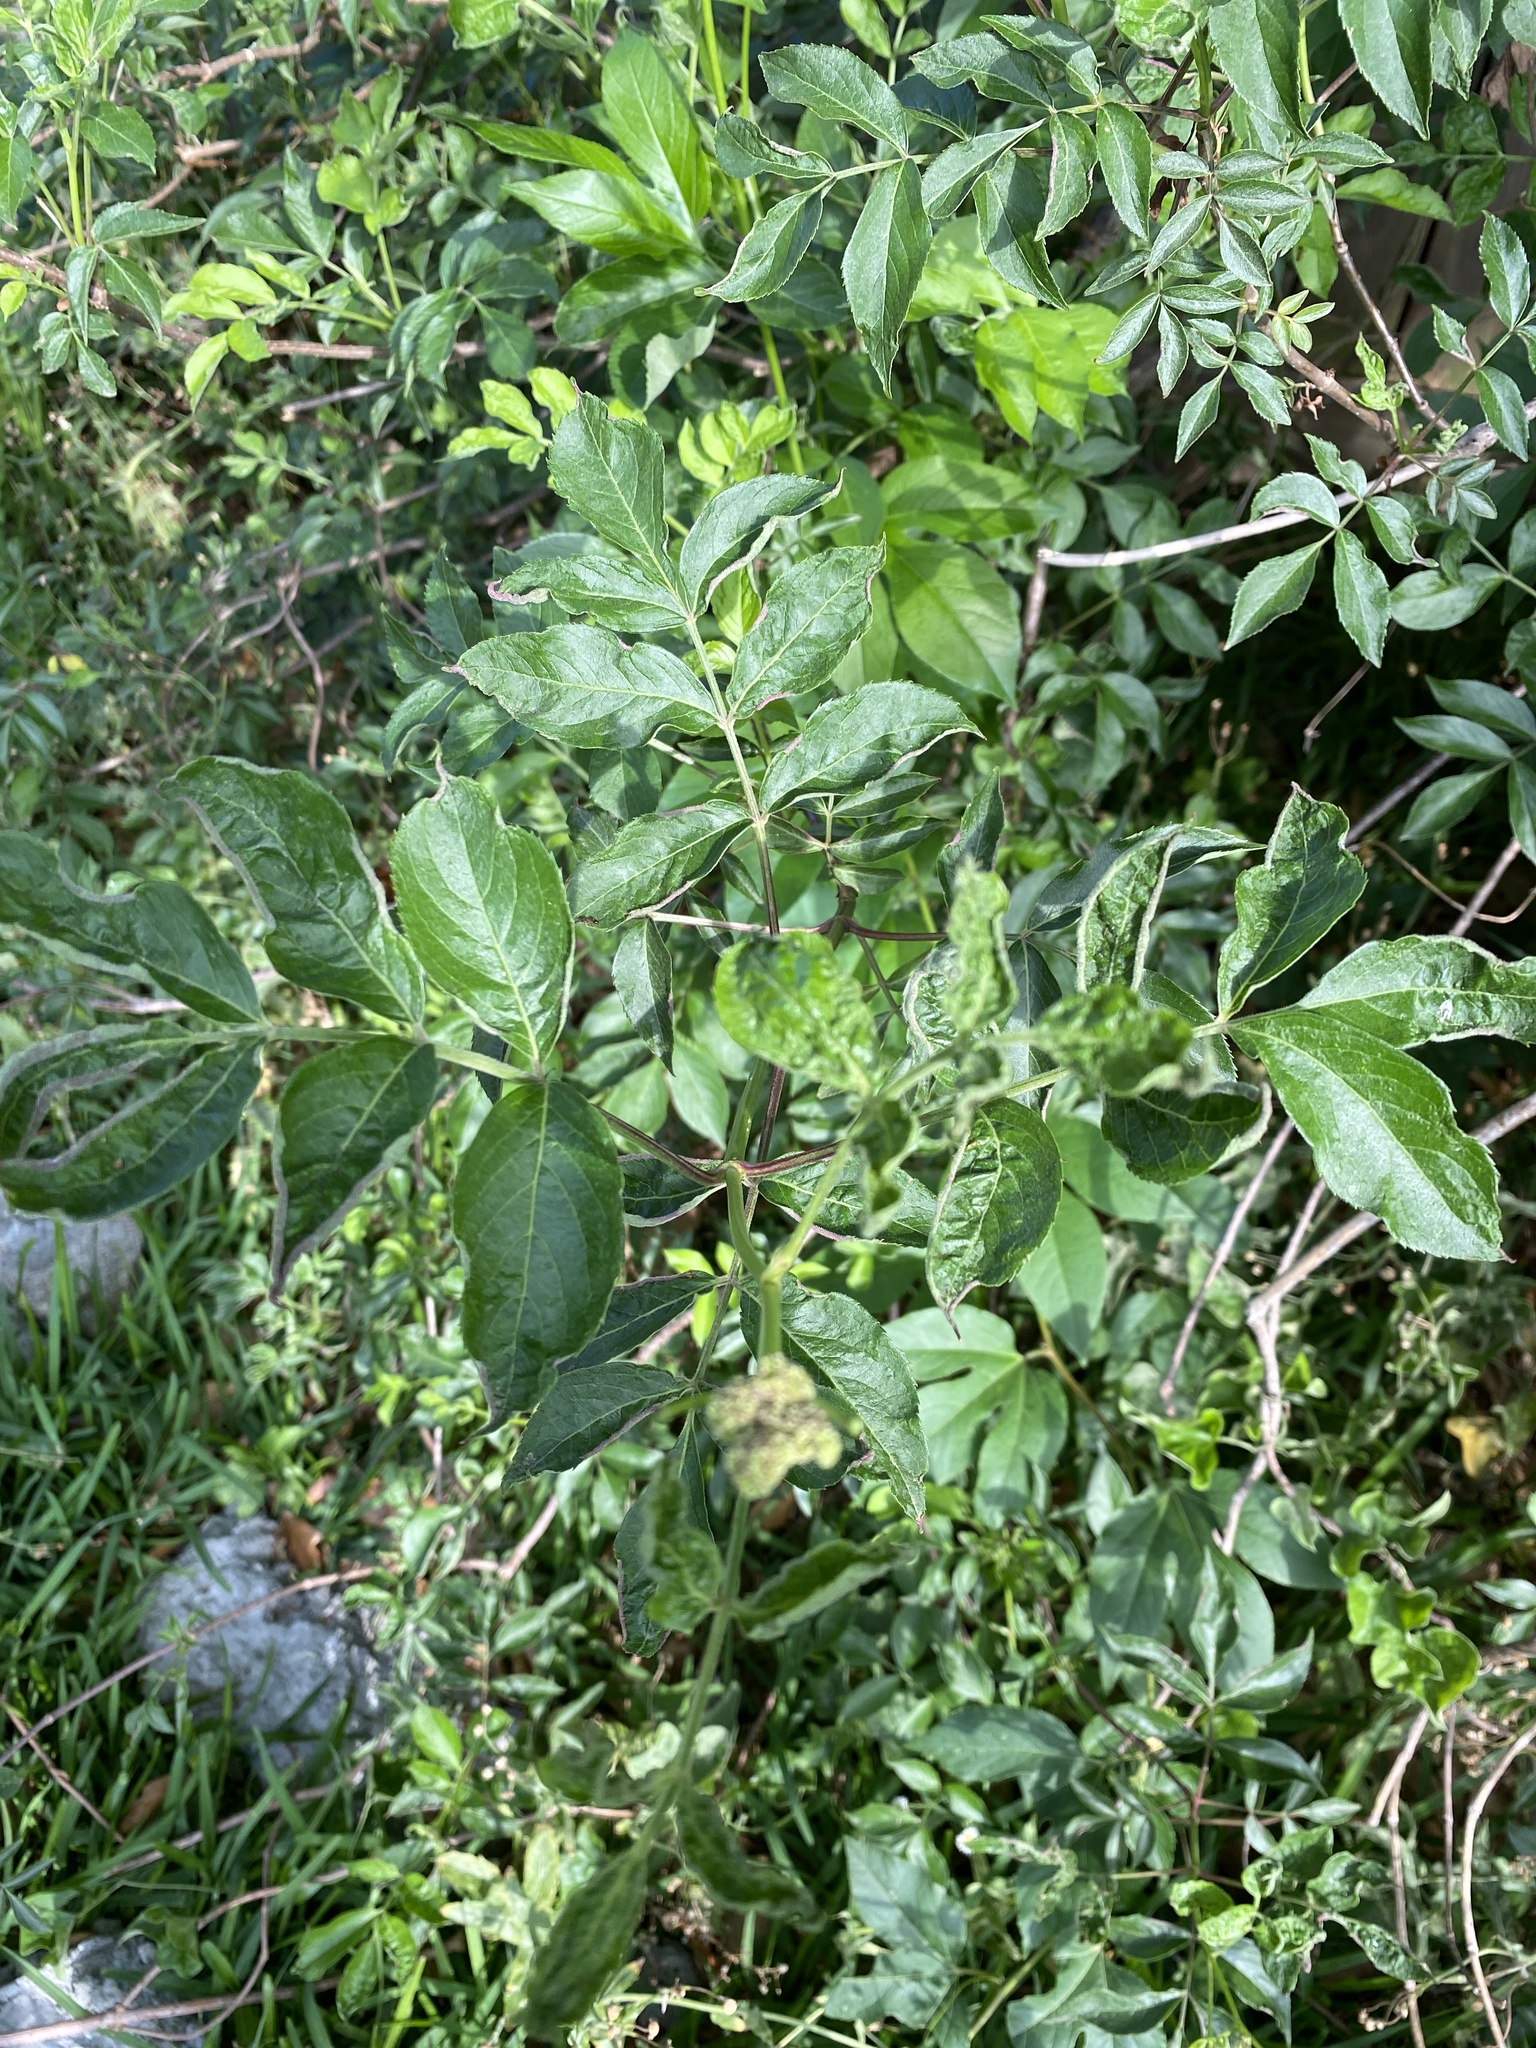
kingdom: Plantae
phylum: Tracheophyta
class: Magnoliopsida
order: Dipsacales
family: Viburnaceae
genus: Sambucus
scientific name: Sambucus canadensis
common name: American elder
